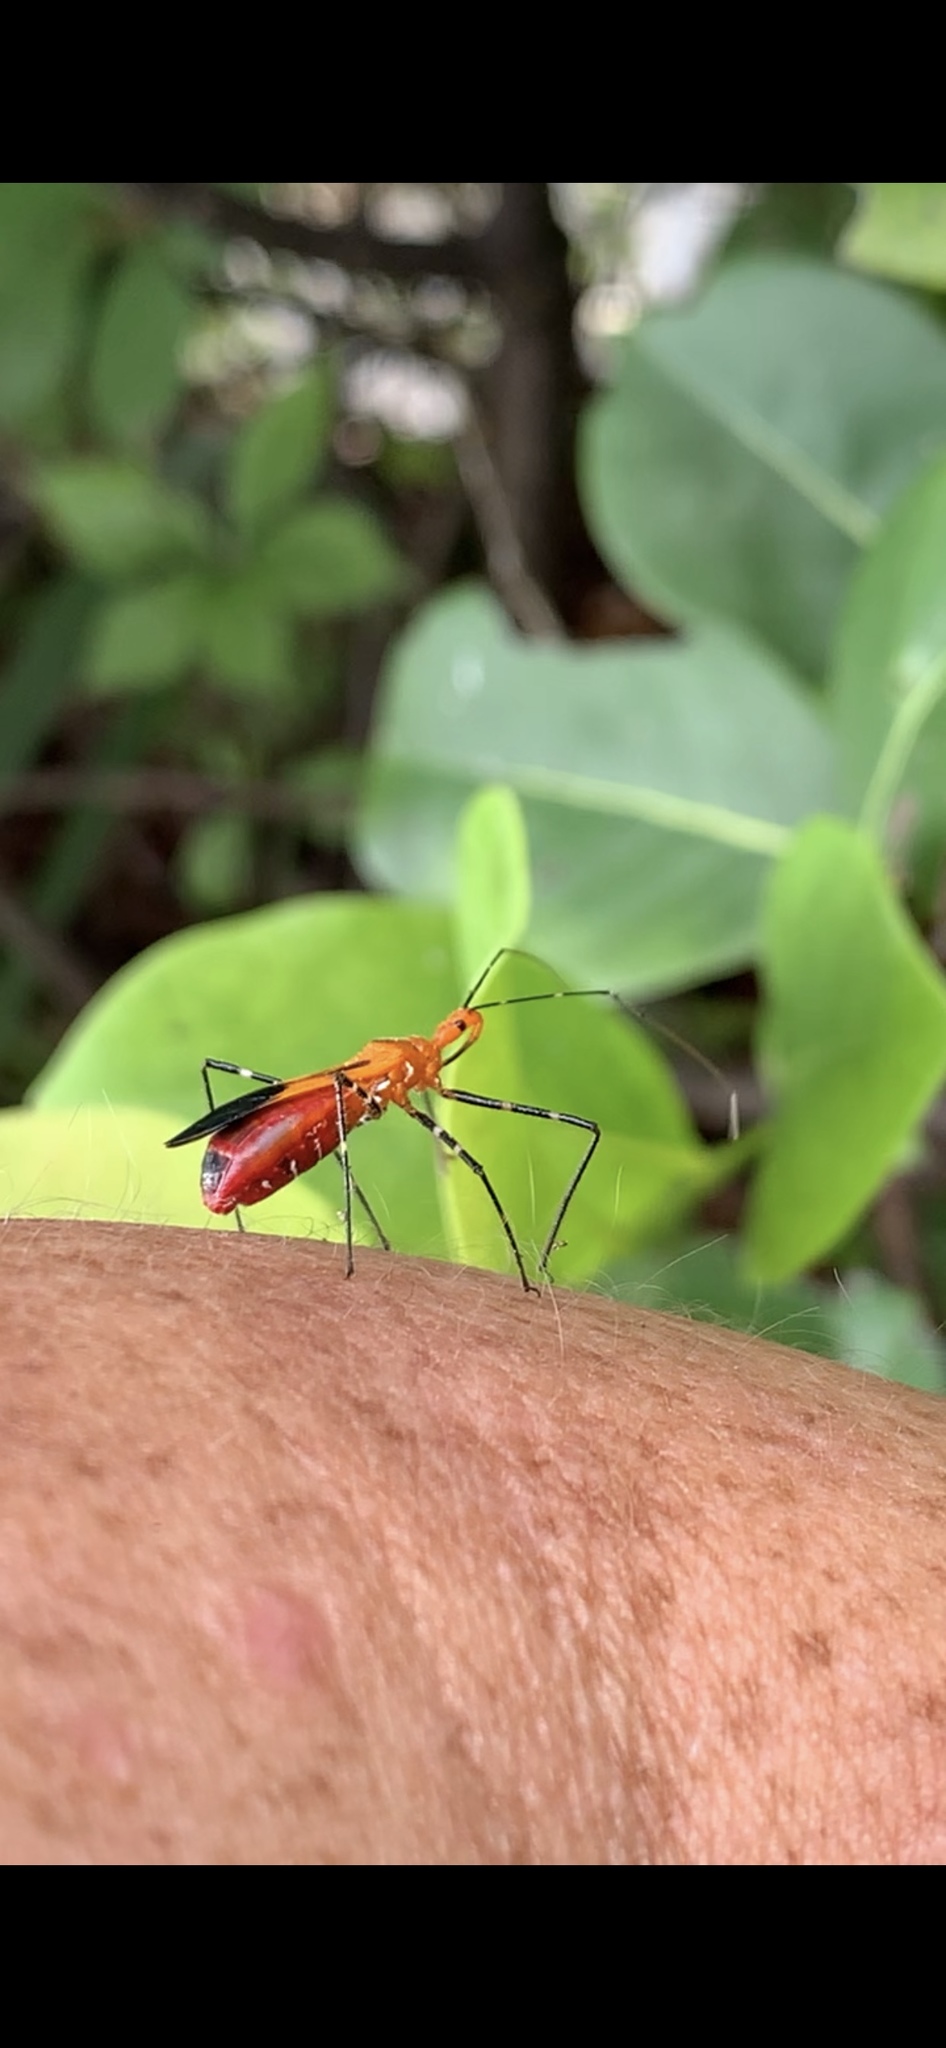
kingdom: Animalia
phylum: Arthropoda
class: Insecta
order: Hemiptera
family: Reduviidae
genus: Zelus
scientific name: Zelus longipes
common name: Milkweed assassin bug
